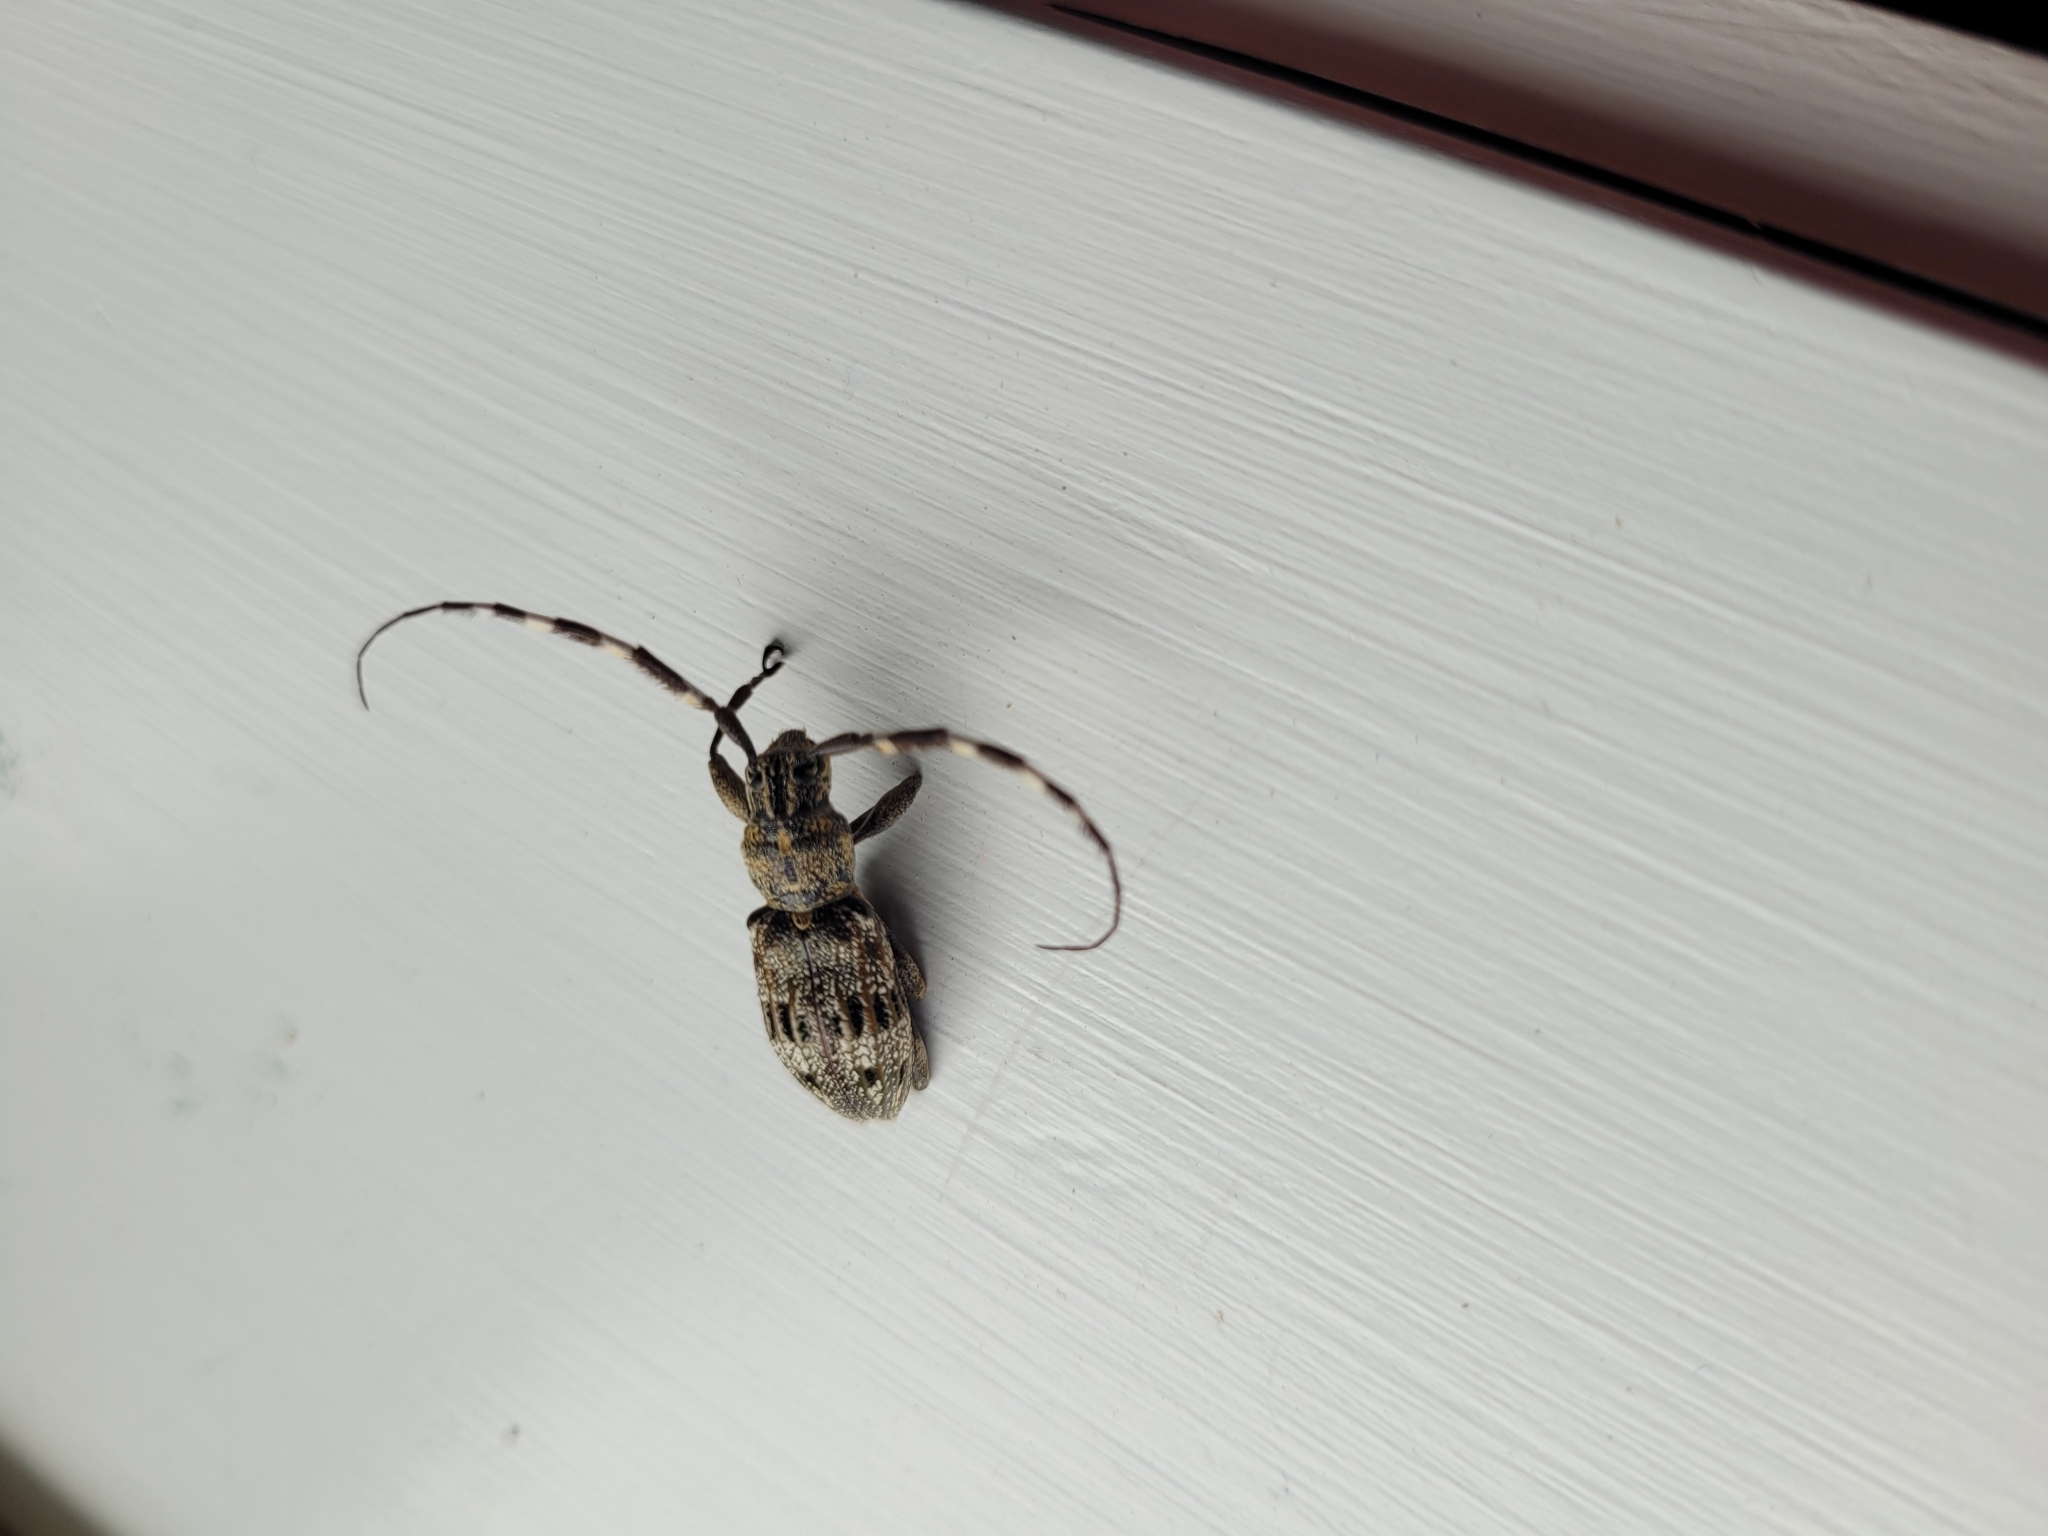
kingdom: Animalia
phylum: Arthropoda
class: Insecta
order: Coleoptera
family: Cerambycidae
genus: Hexatricha
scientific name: Hexatricha pulverulenta
